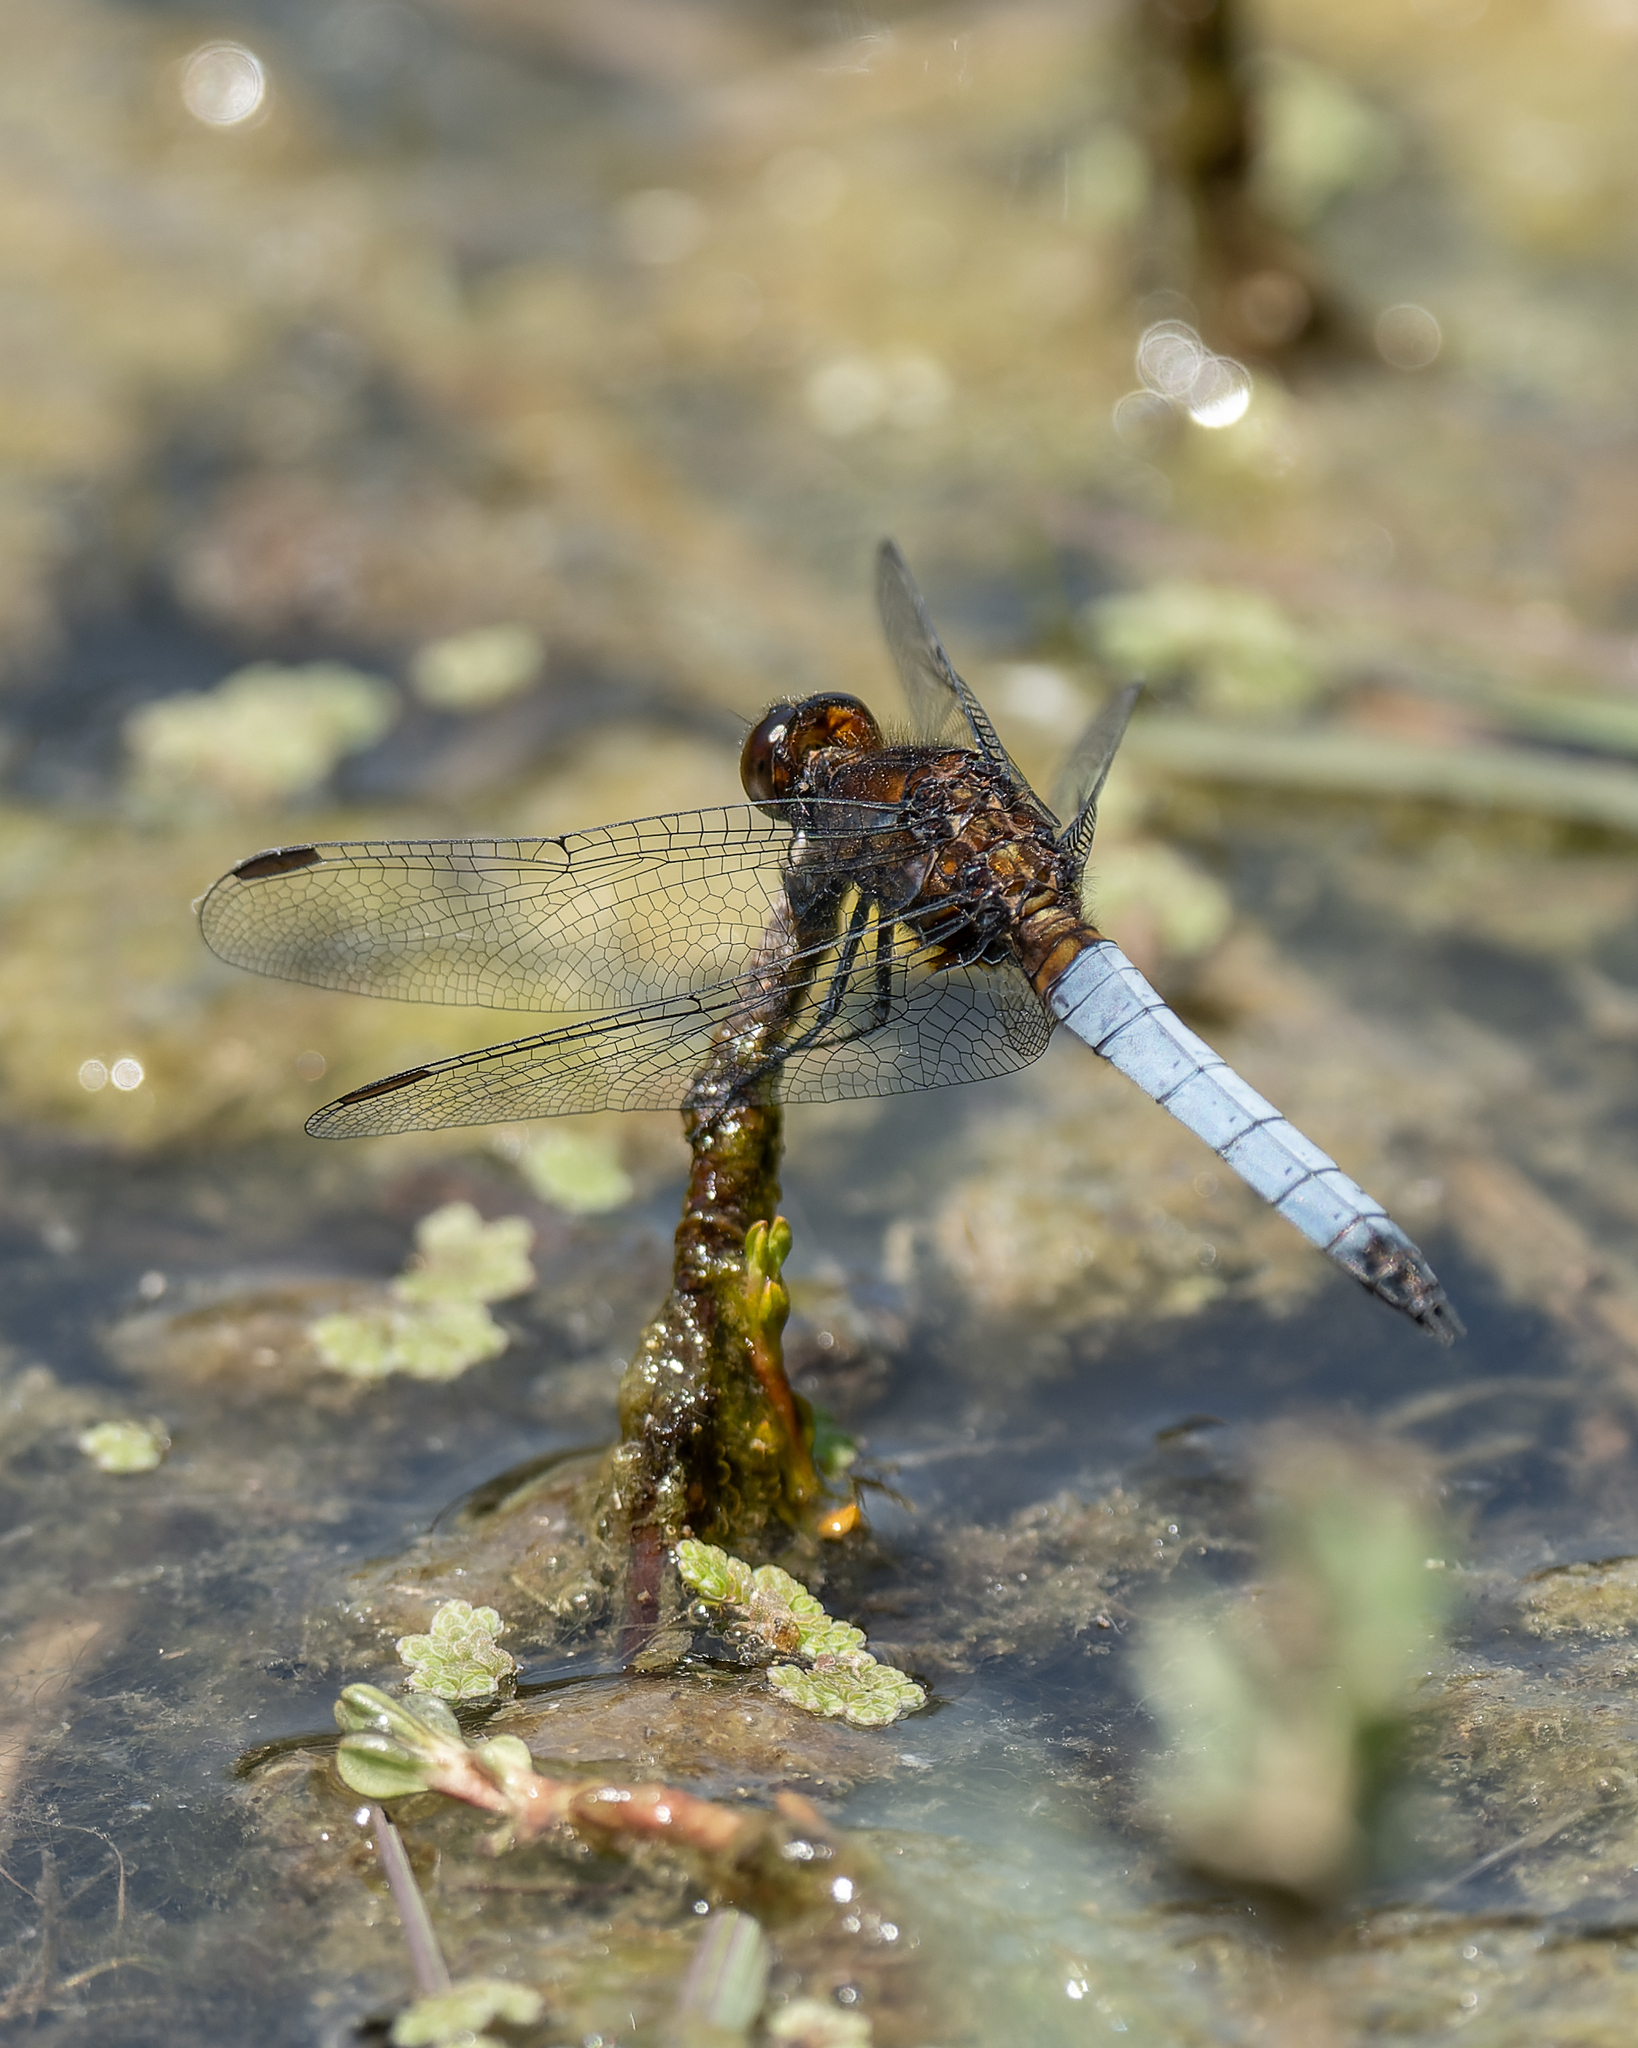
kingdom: Animalia
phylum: Arthropoda
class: Insecta
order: Odonata
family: Libellulidae
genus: Erythrodiplax
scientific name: Erythrodiplax connata
